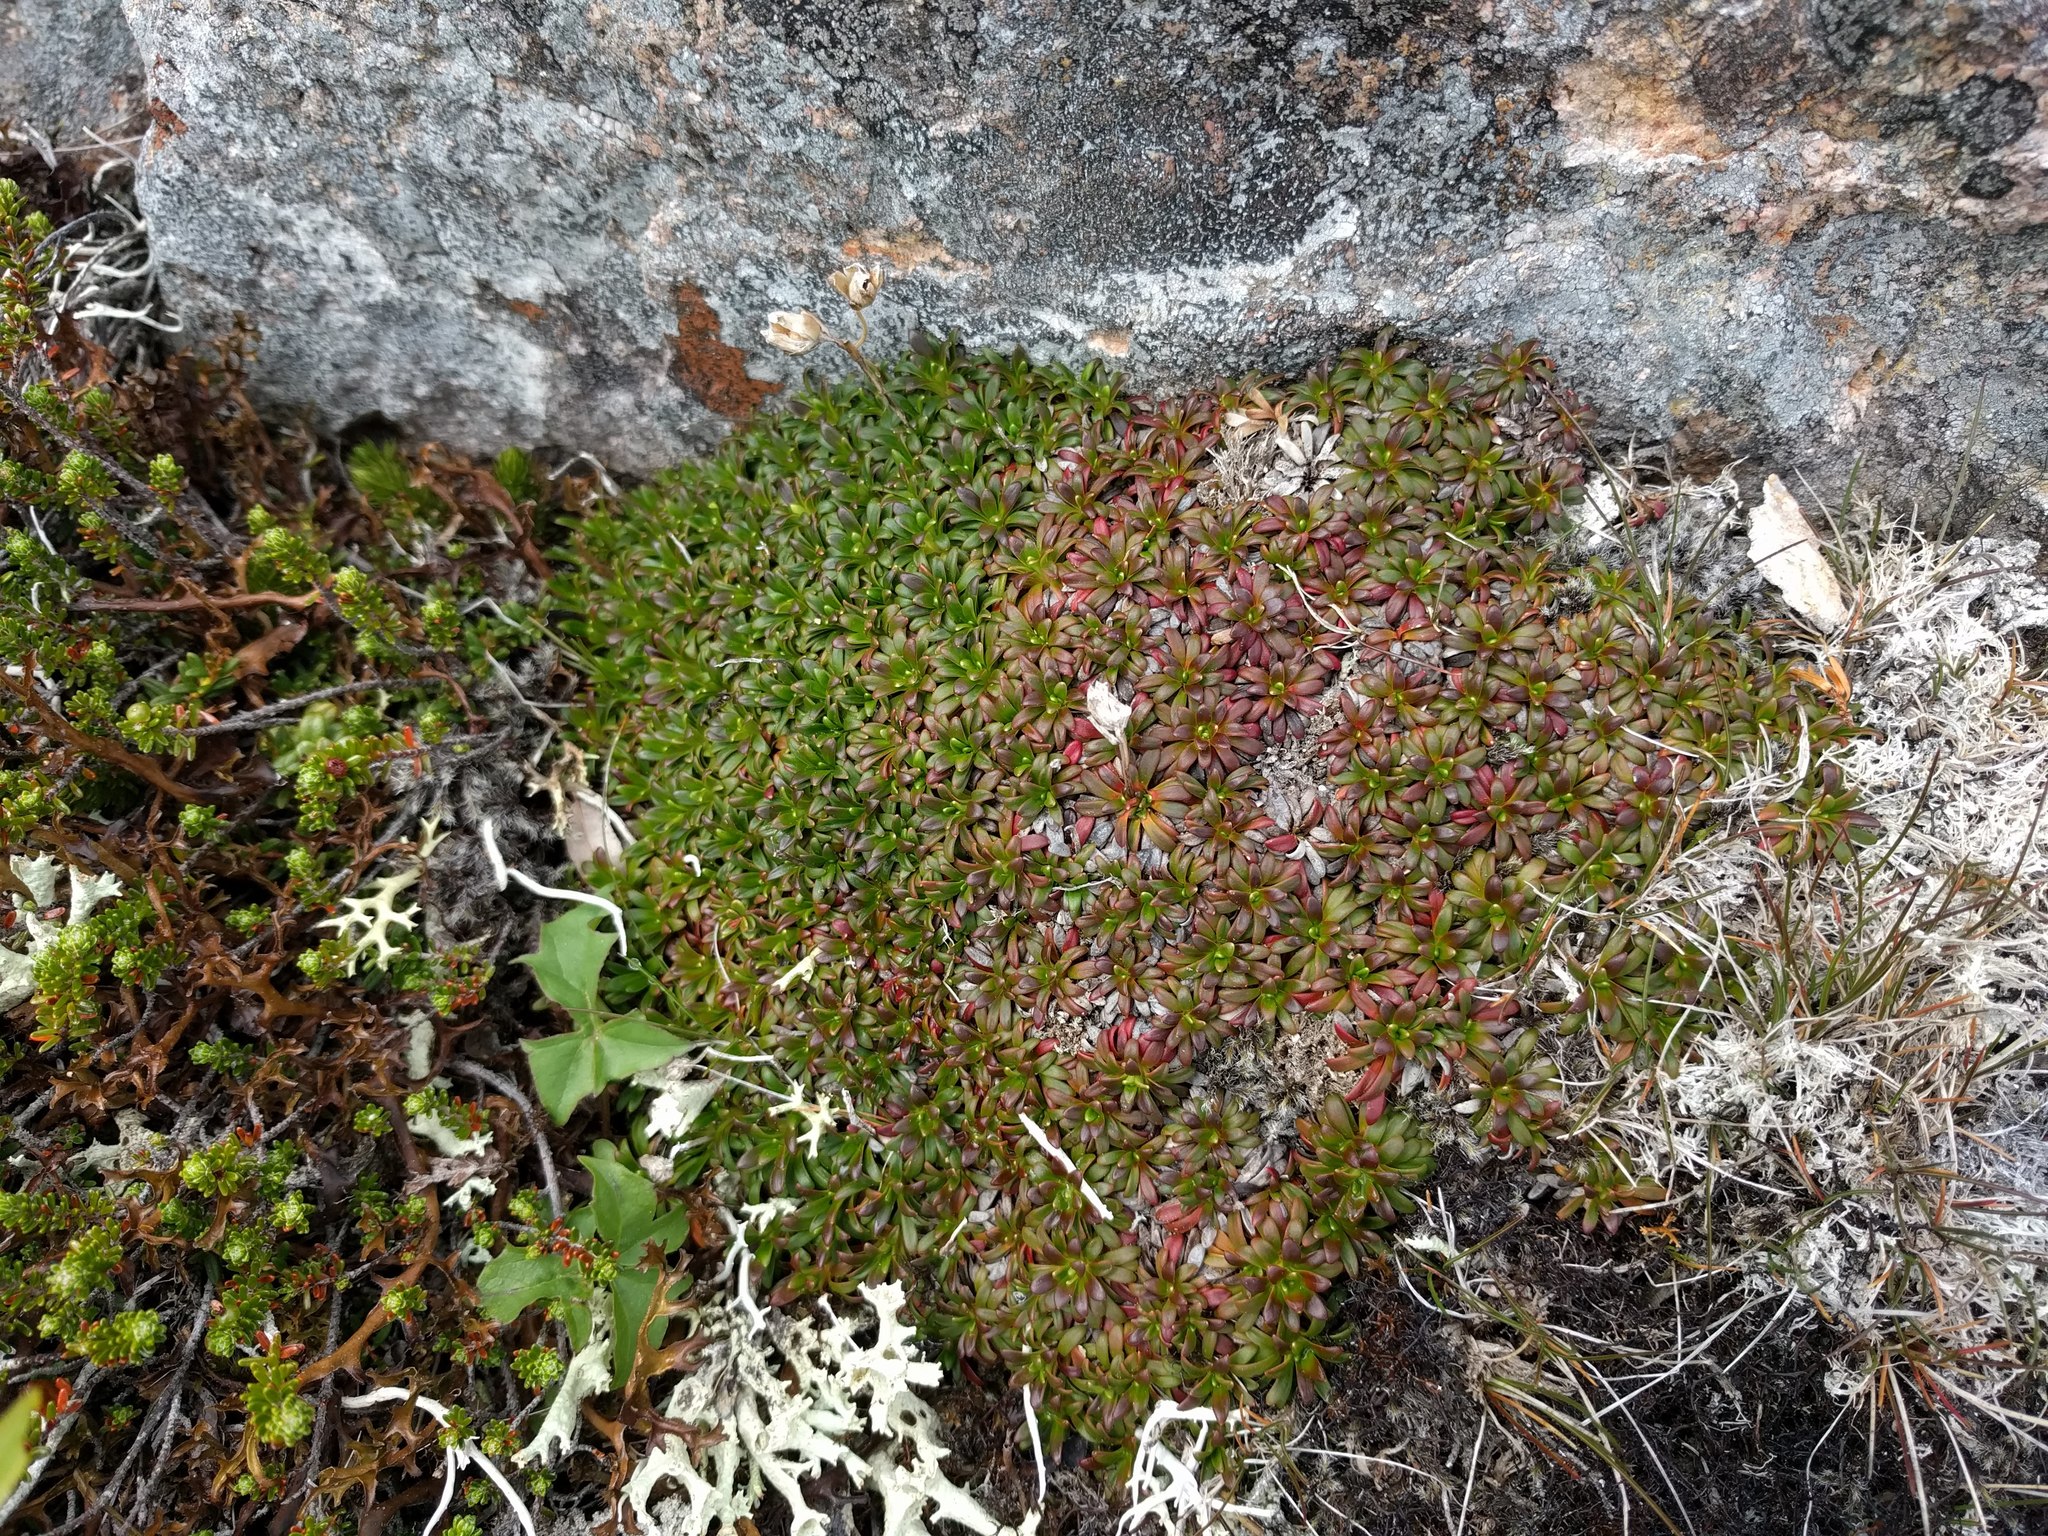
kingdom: Plantae
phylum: Tracheophyta
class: Magnoliopsida
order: Ericales
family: Diapensiaceae
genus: Diapensia
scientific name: Diapensia lapponica
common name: Diapensia
